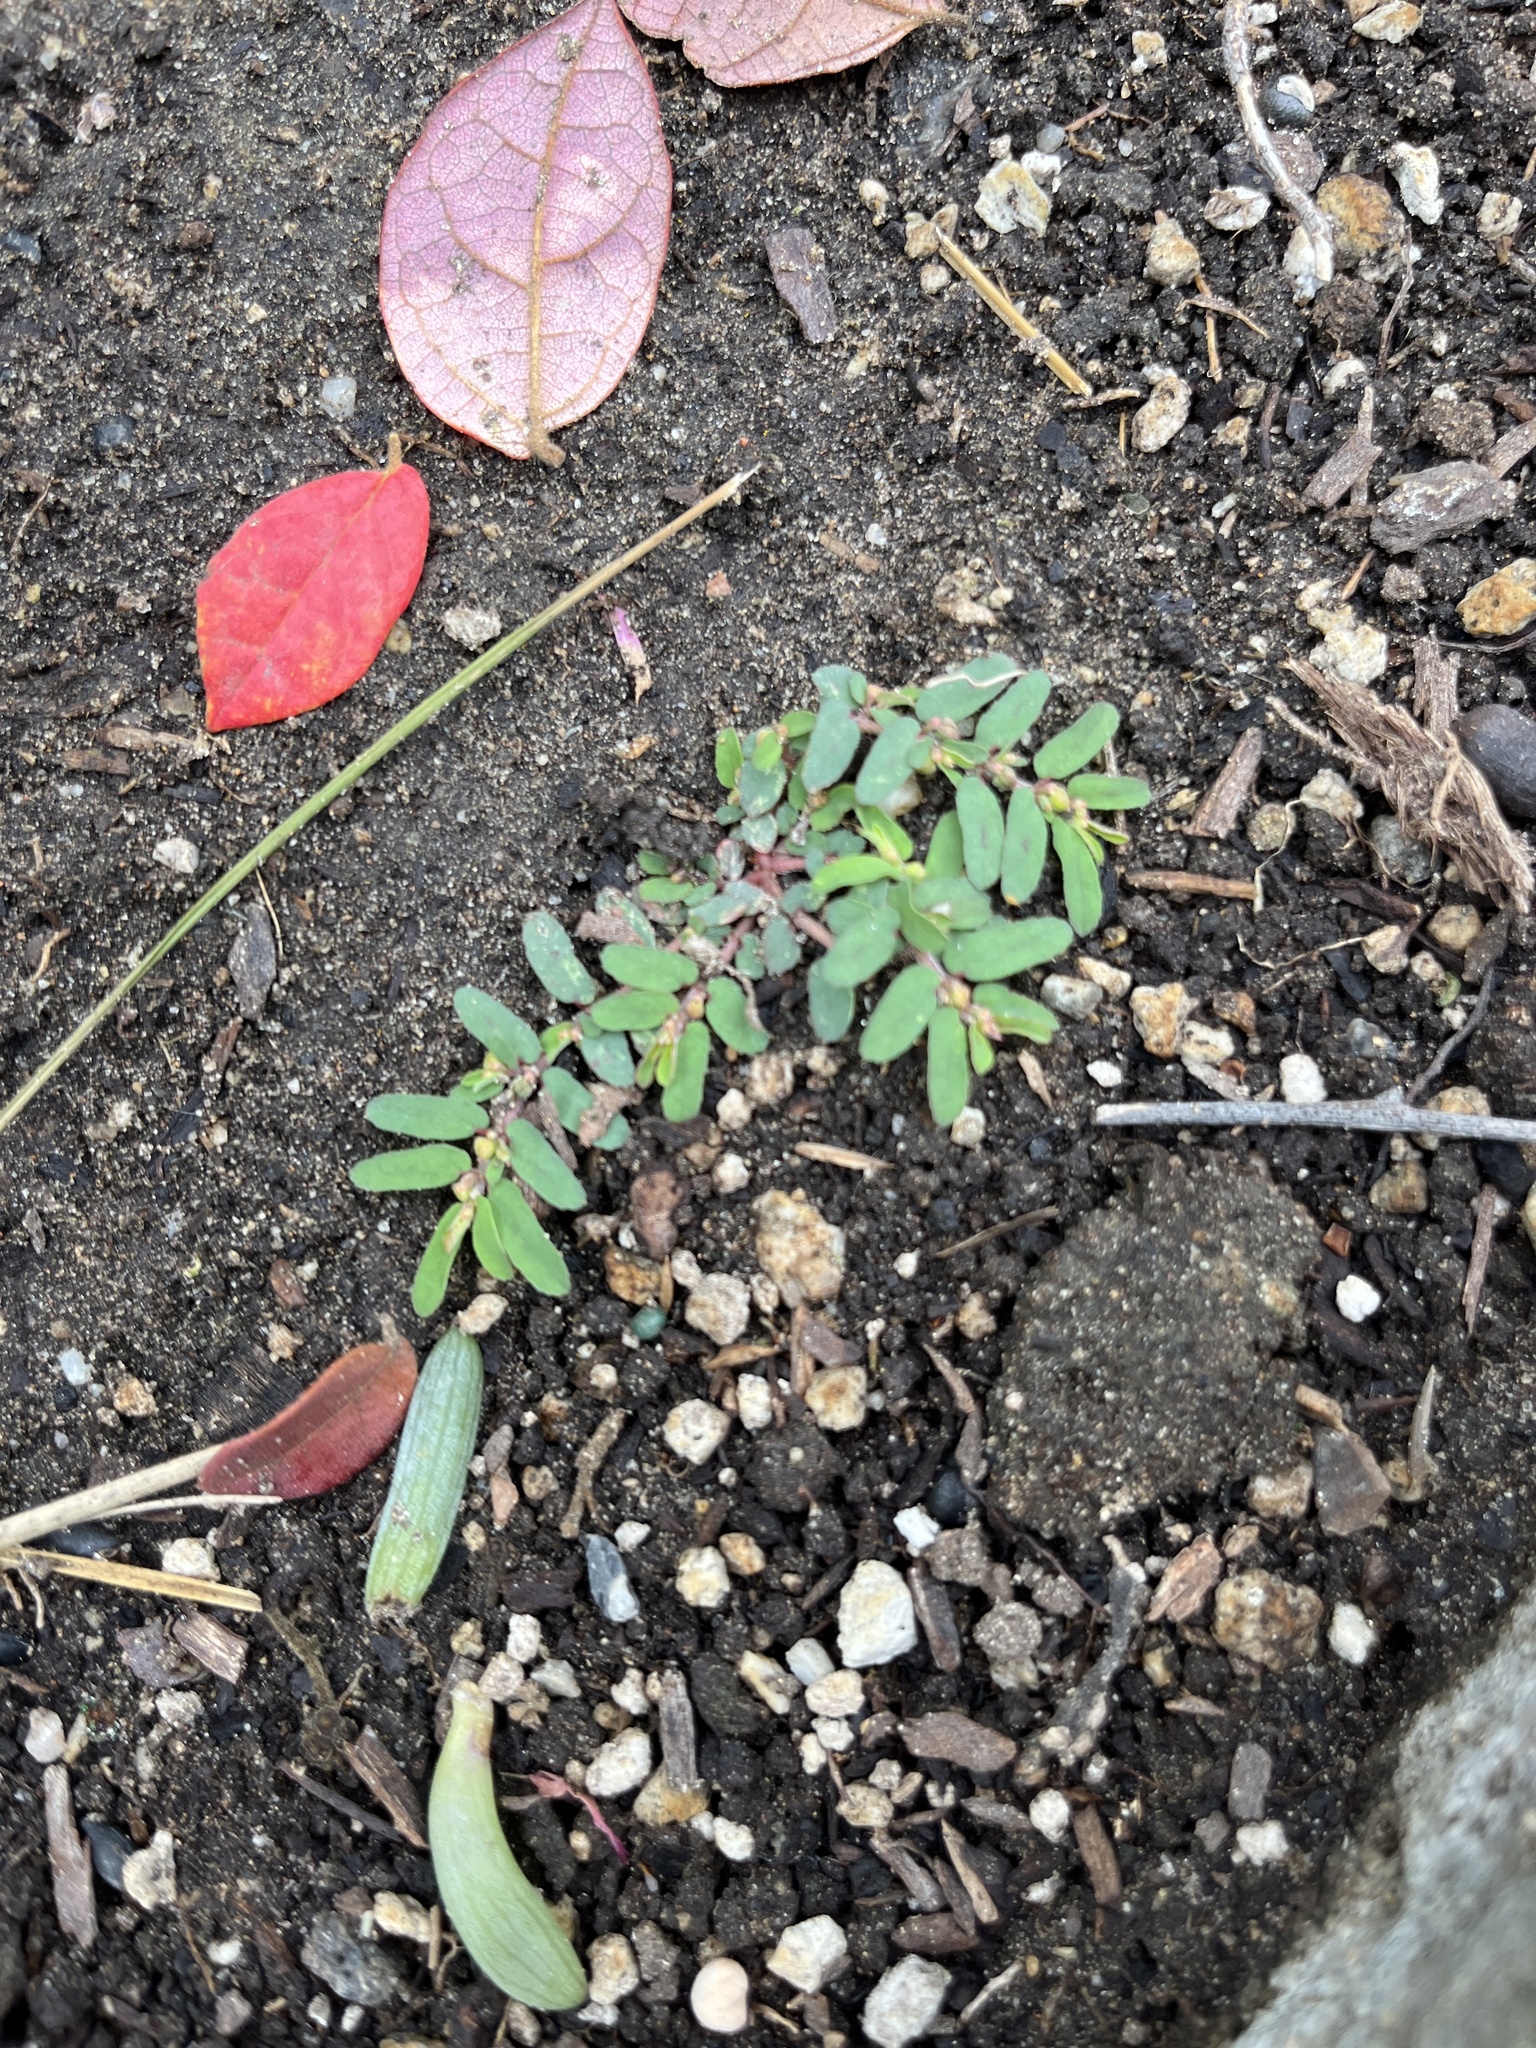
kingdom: Plantae
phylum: Tracheophyta
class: Magnoliopsida
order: Malpighiales
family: Euphorbiaceae
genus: Euphorbia
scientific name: Euphorbia maculata
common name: Spotted spurge
